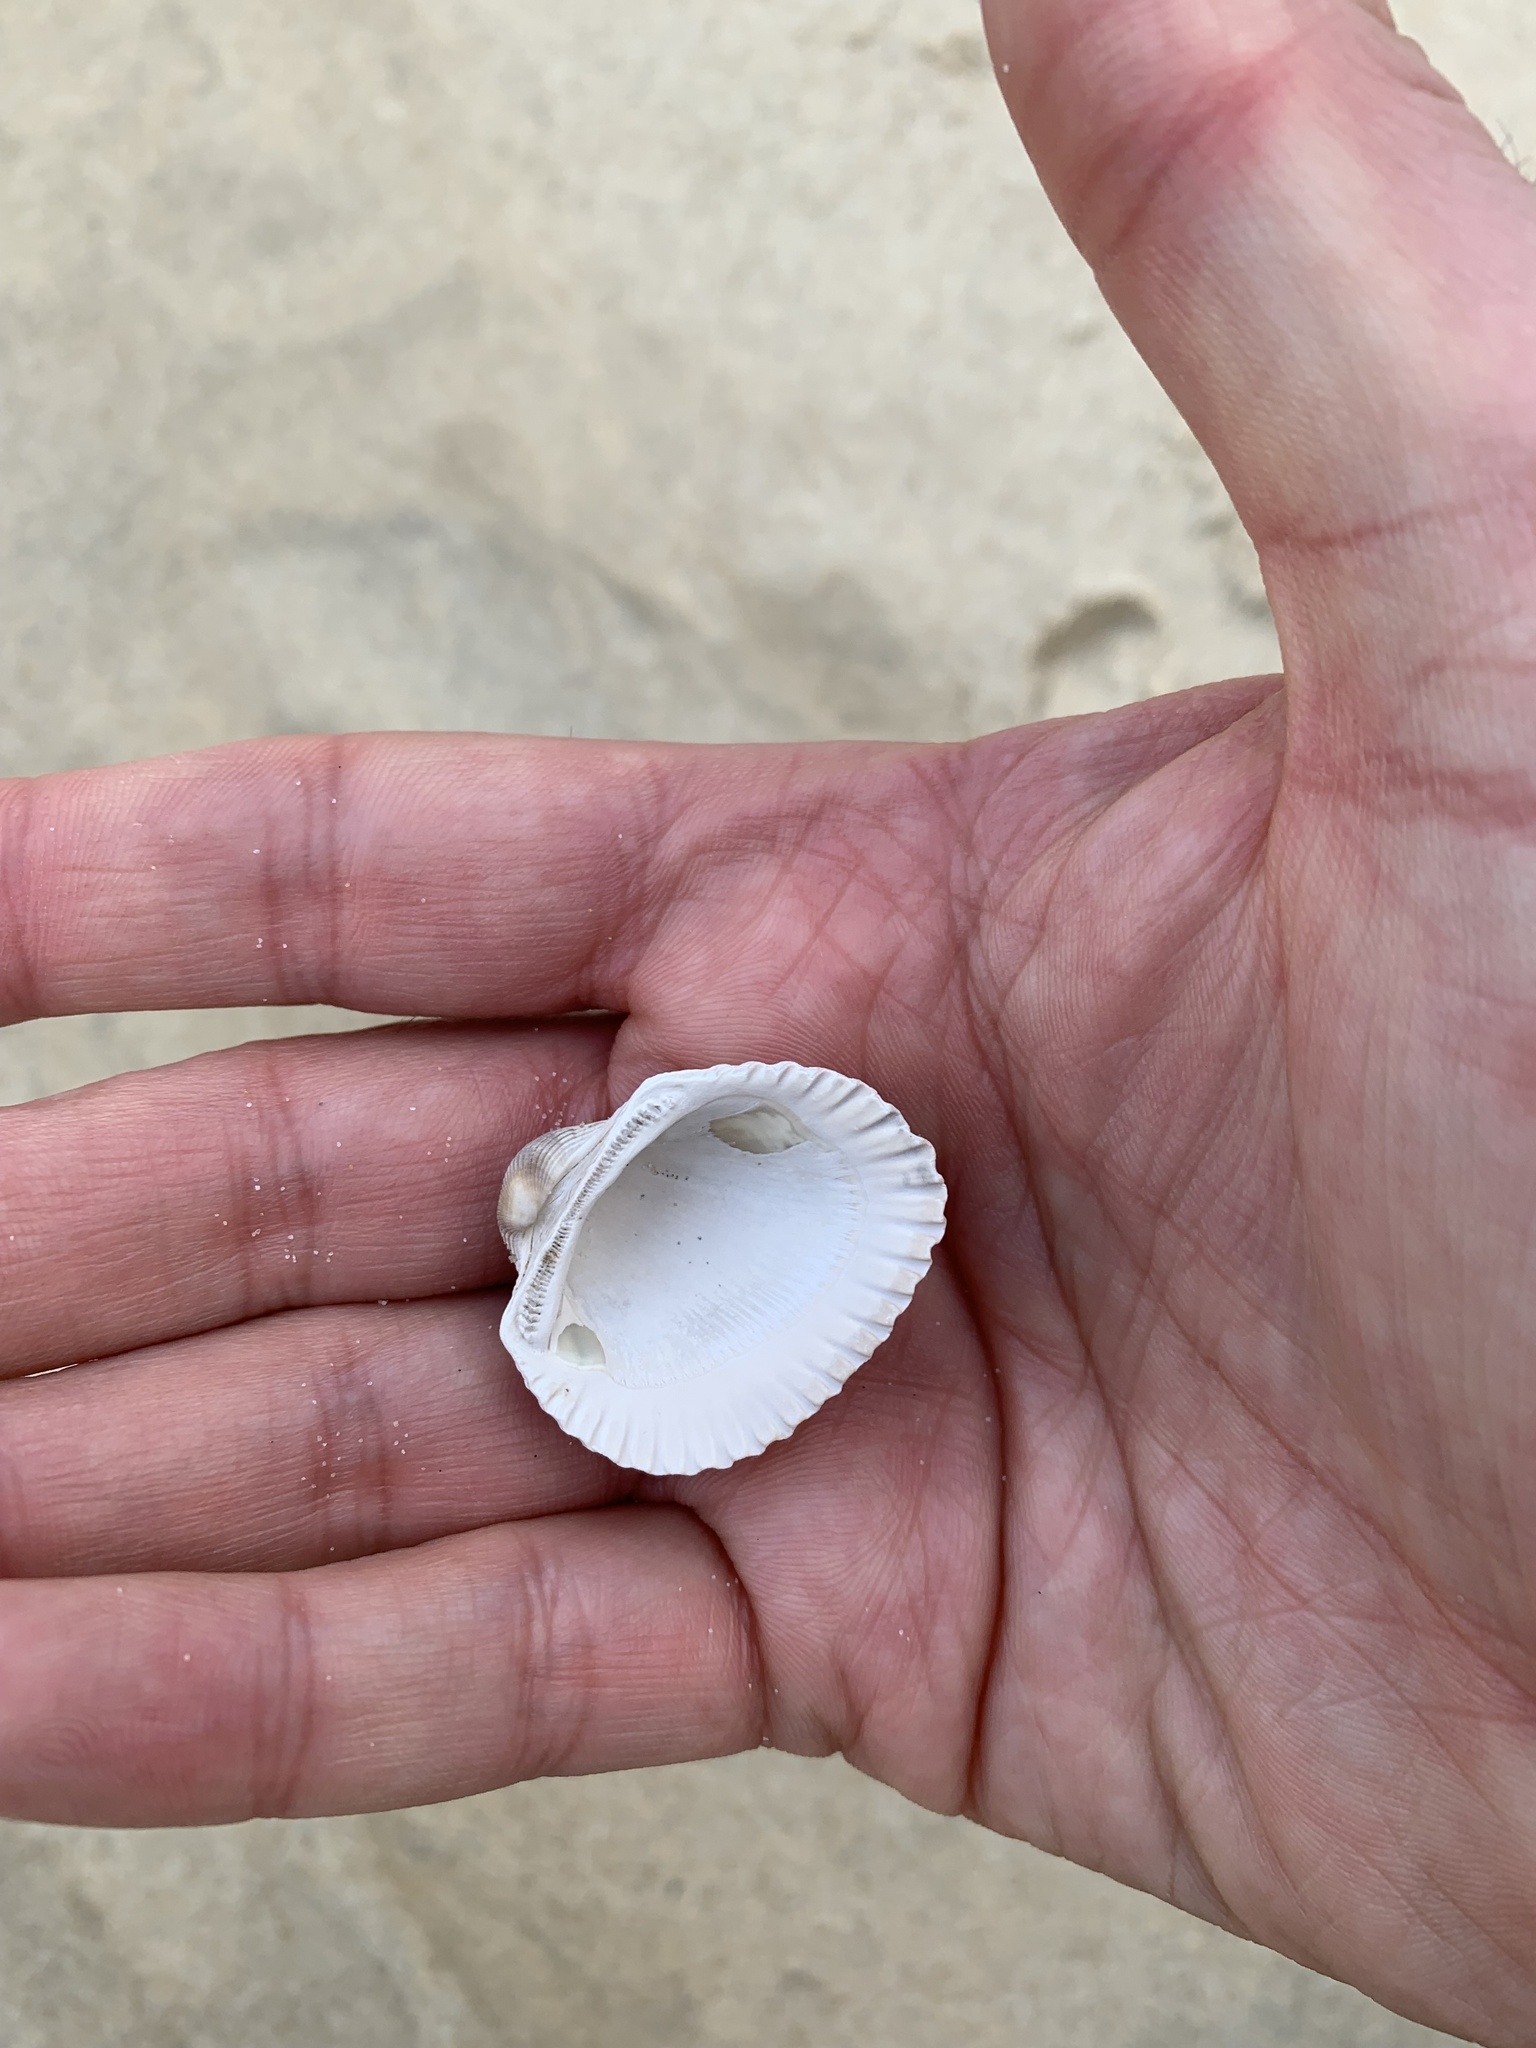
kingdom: Animalia
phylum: Mollusca
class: Bivalvia
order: Arcida
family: Arcidae
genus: Anadara
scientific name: Anadara trapezia
